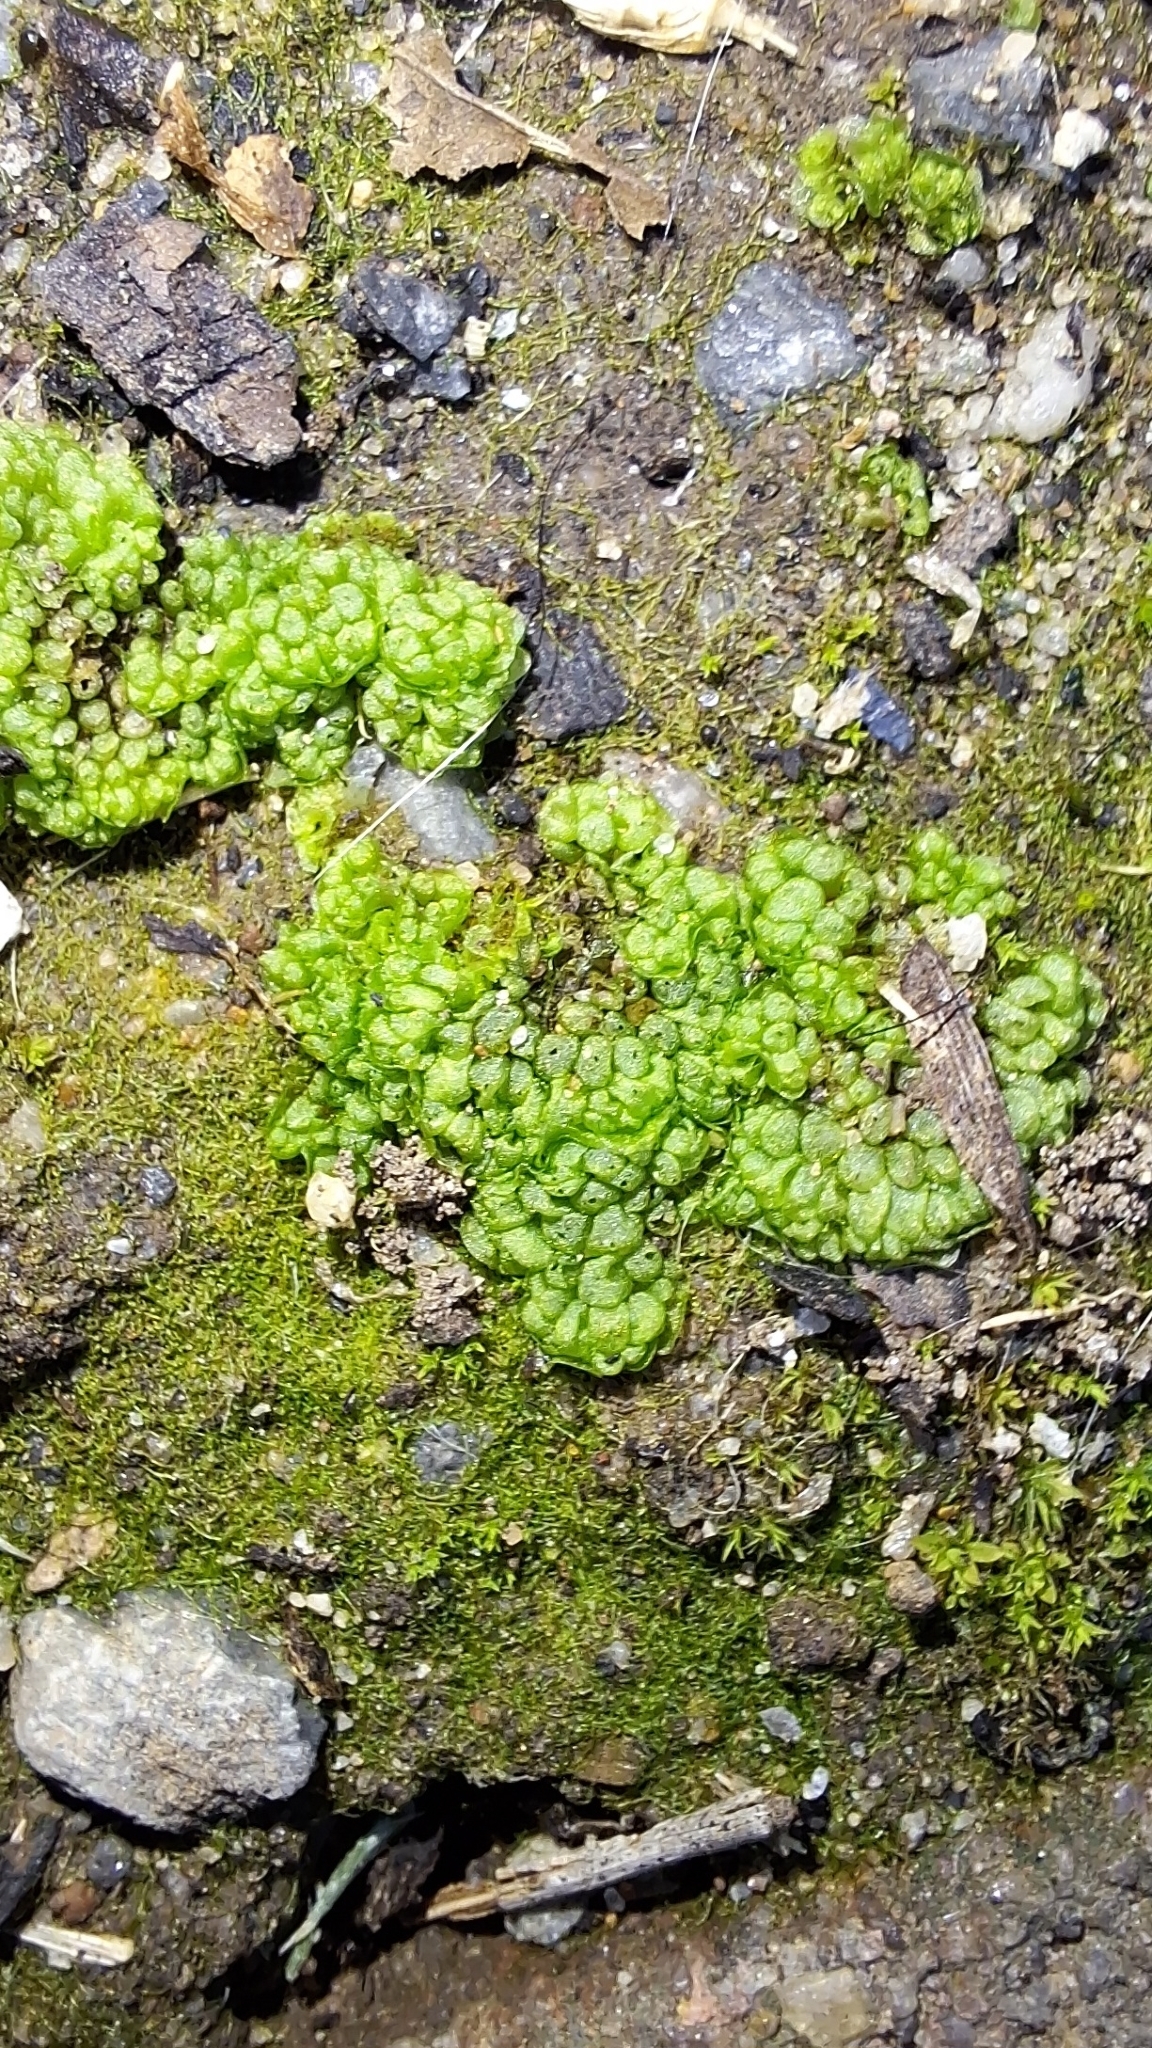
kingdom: Plantae
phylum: Marchantiophyta
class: Marchantiopsida
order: Sphaerocarpales
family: Sphaerocarpaceae
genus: Sphaerocarpos
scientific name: Sphaerocarpos texanus
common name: Texas balloonwort
